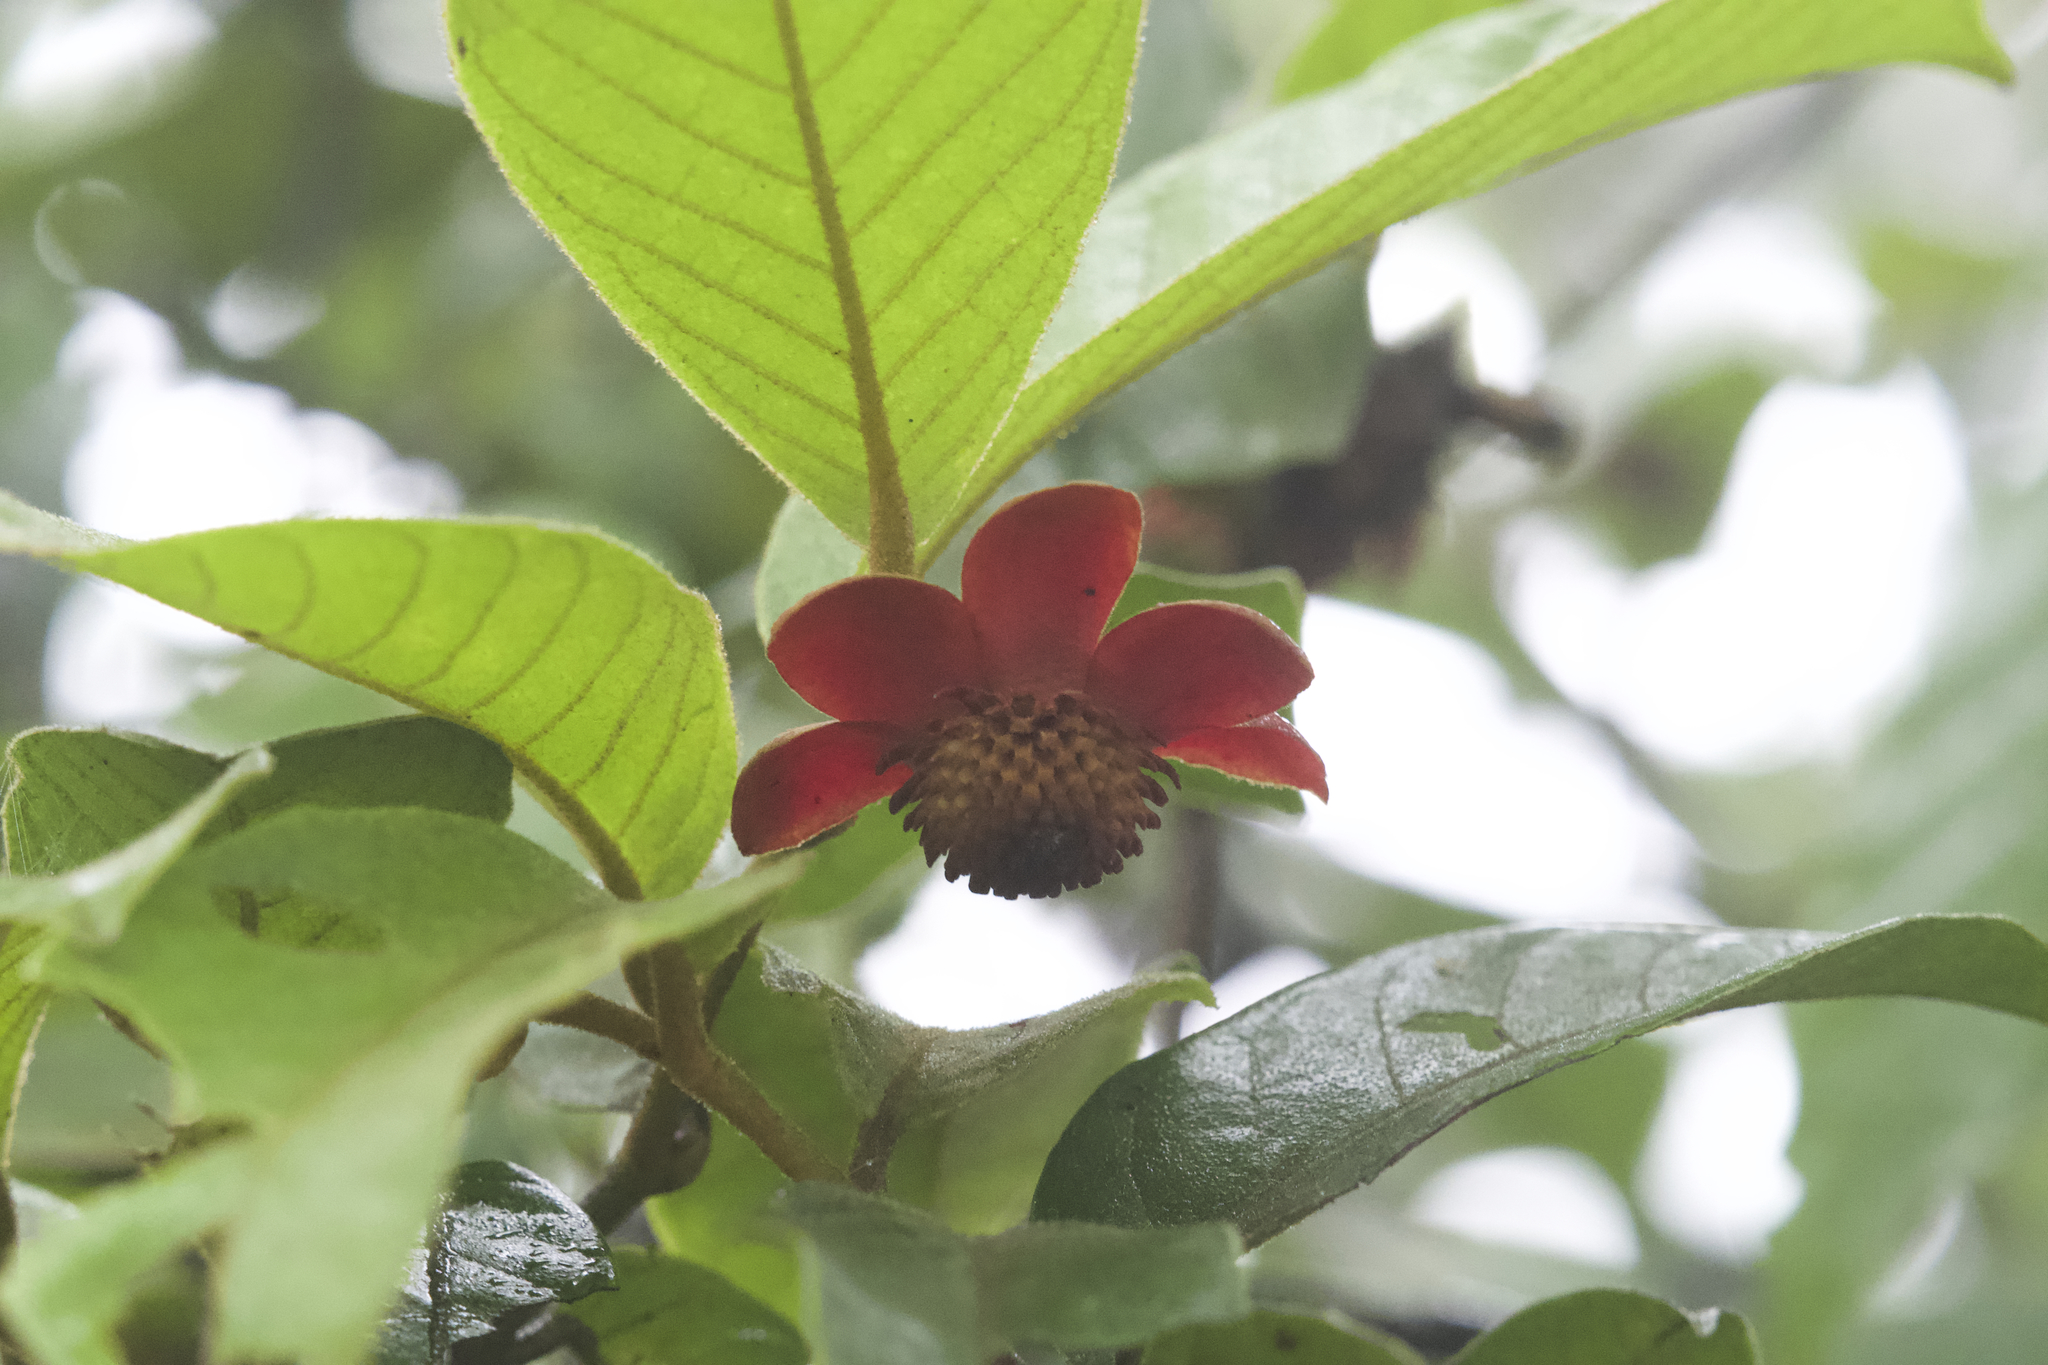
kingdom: Plantae
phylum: Tracheophyta
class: Magnoliopsida
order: Magnoliales
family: Annonaceae
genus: Uvaria
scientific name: Uvaria littoralis
